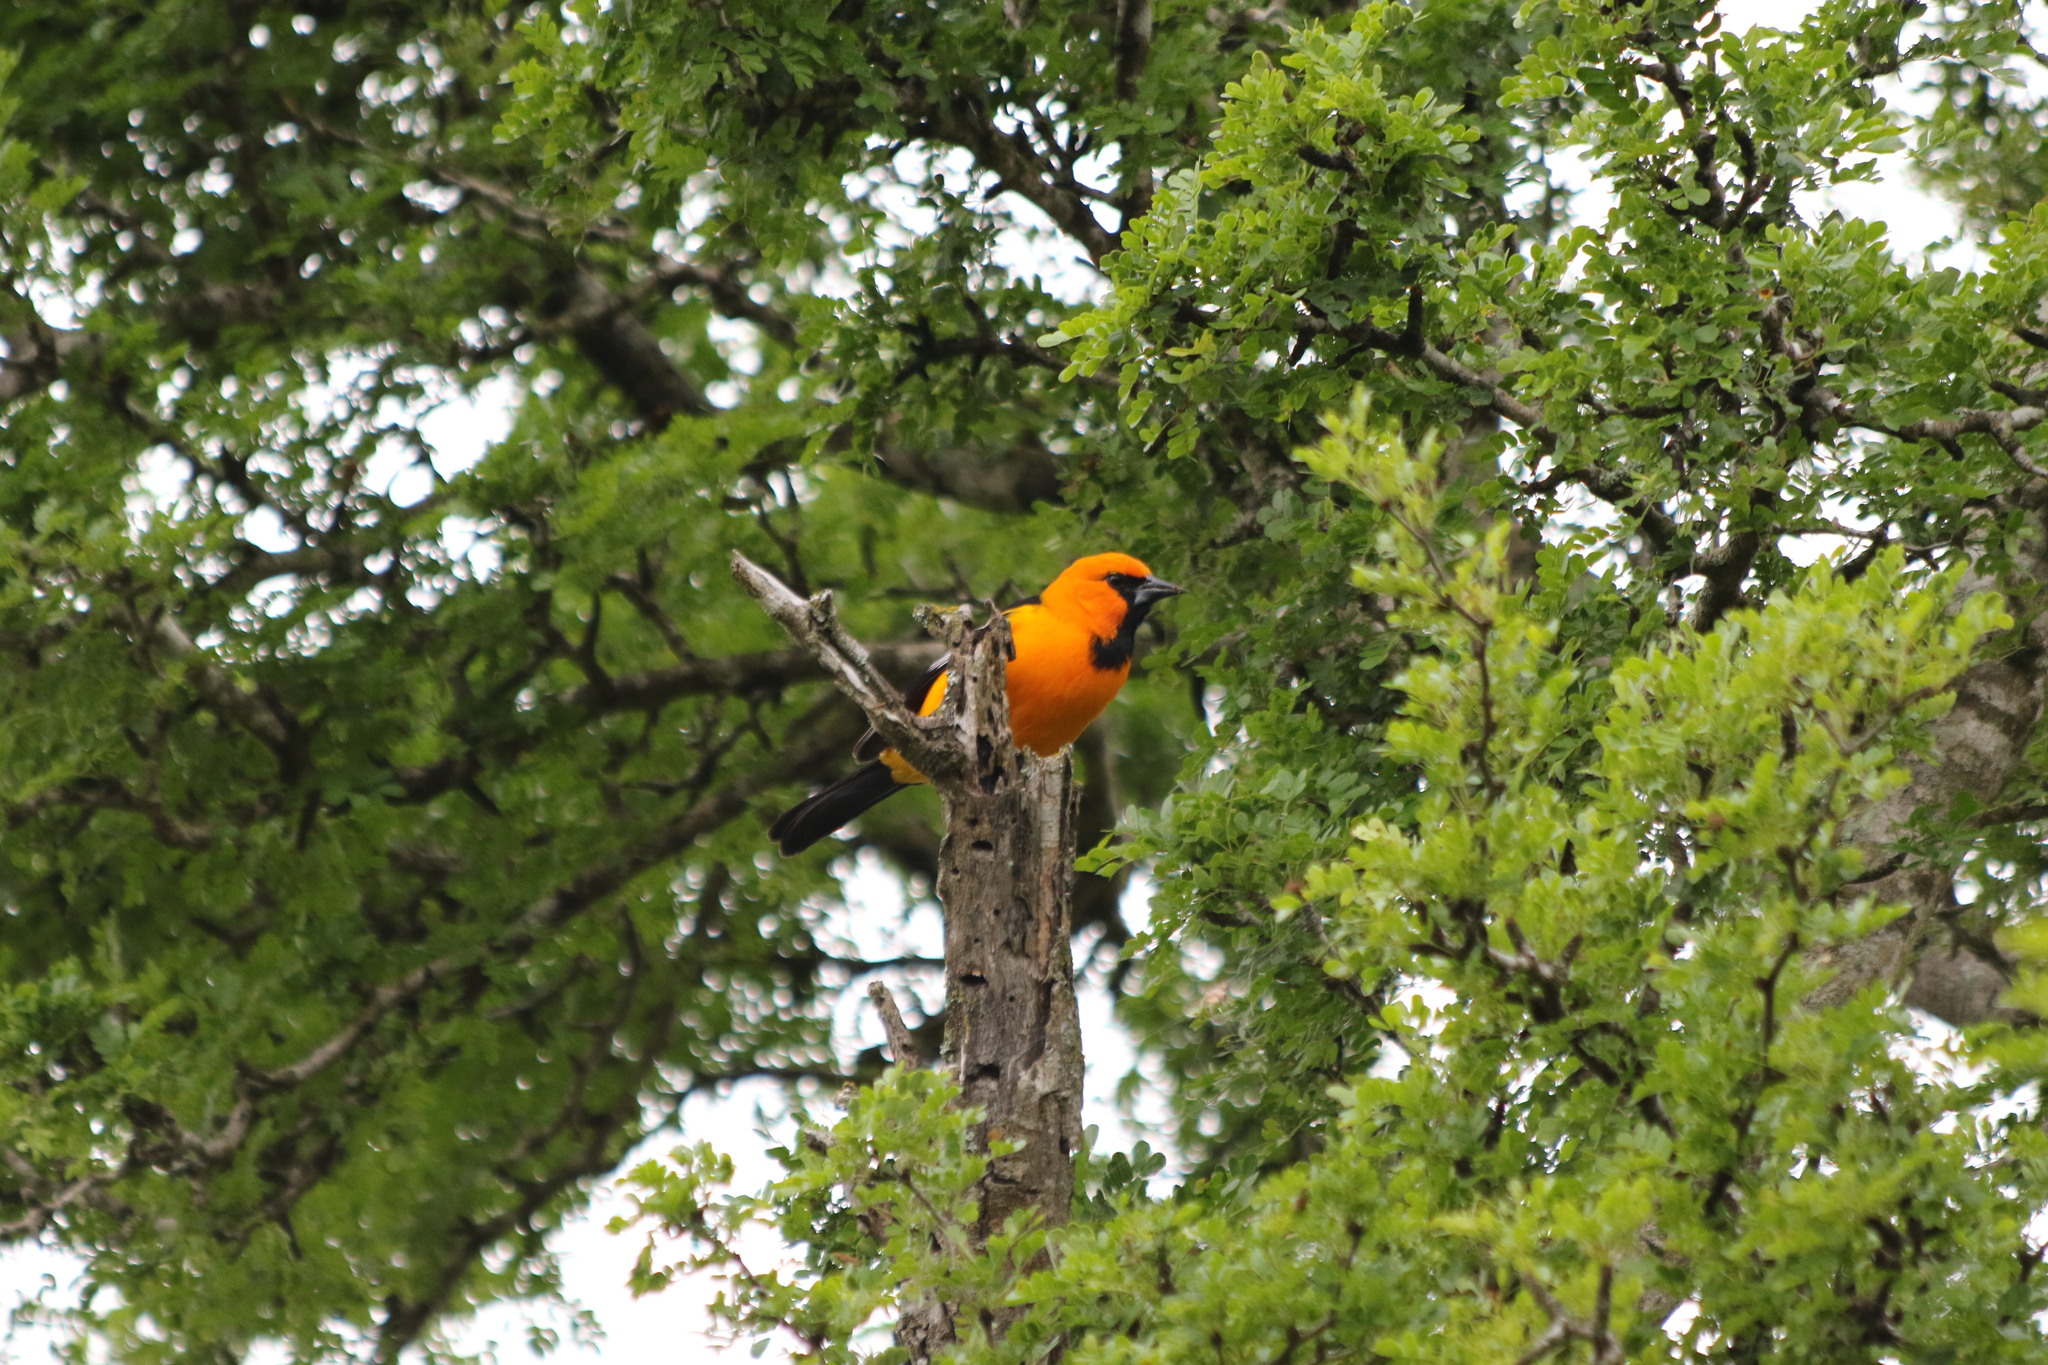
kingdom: Animalia
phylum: Chordata
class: Aves
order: Passeriformes
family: Icteridae
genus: Icterus
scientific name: Icterus gularis
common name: Altamira oriole
